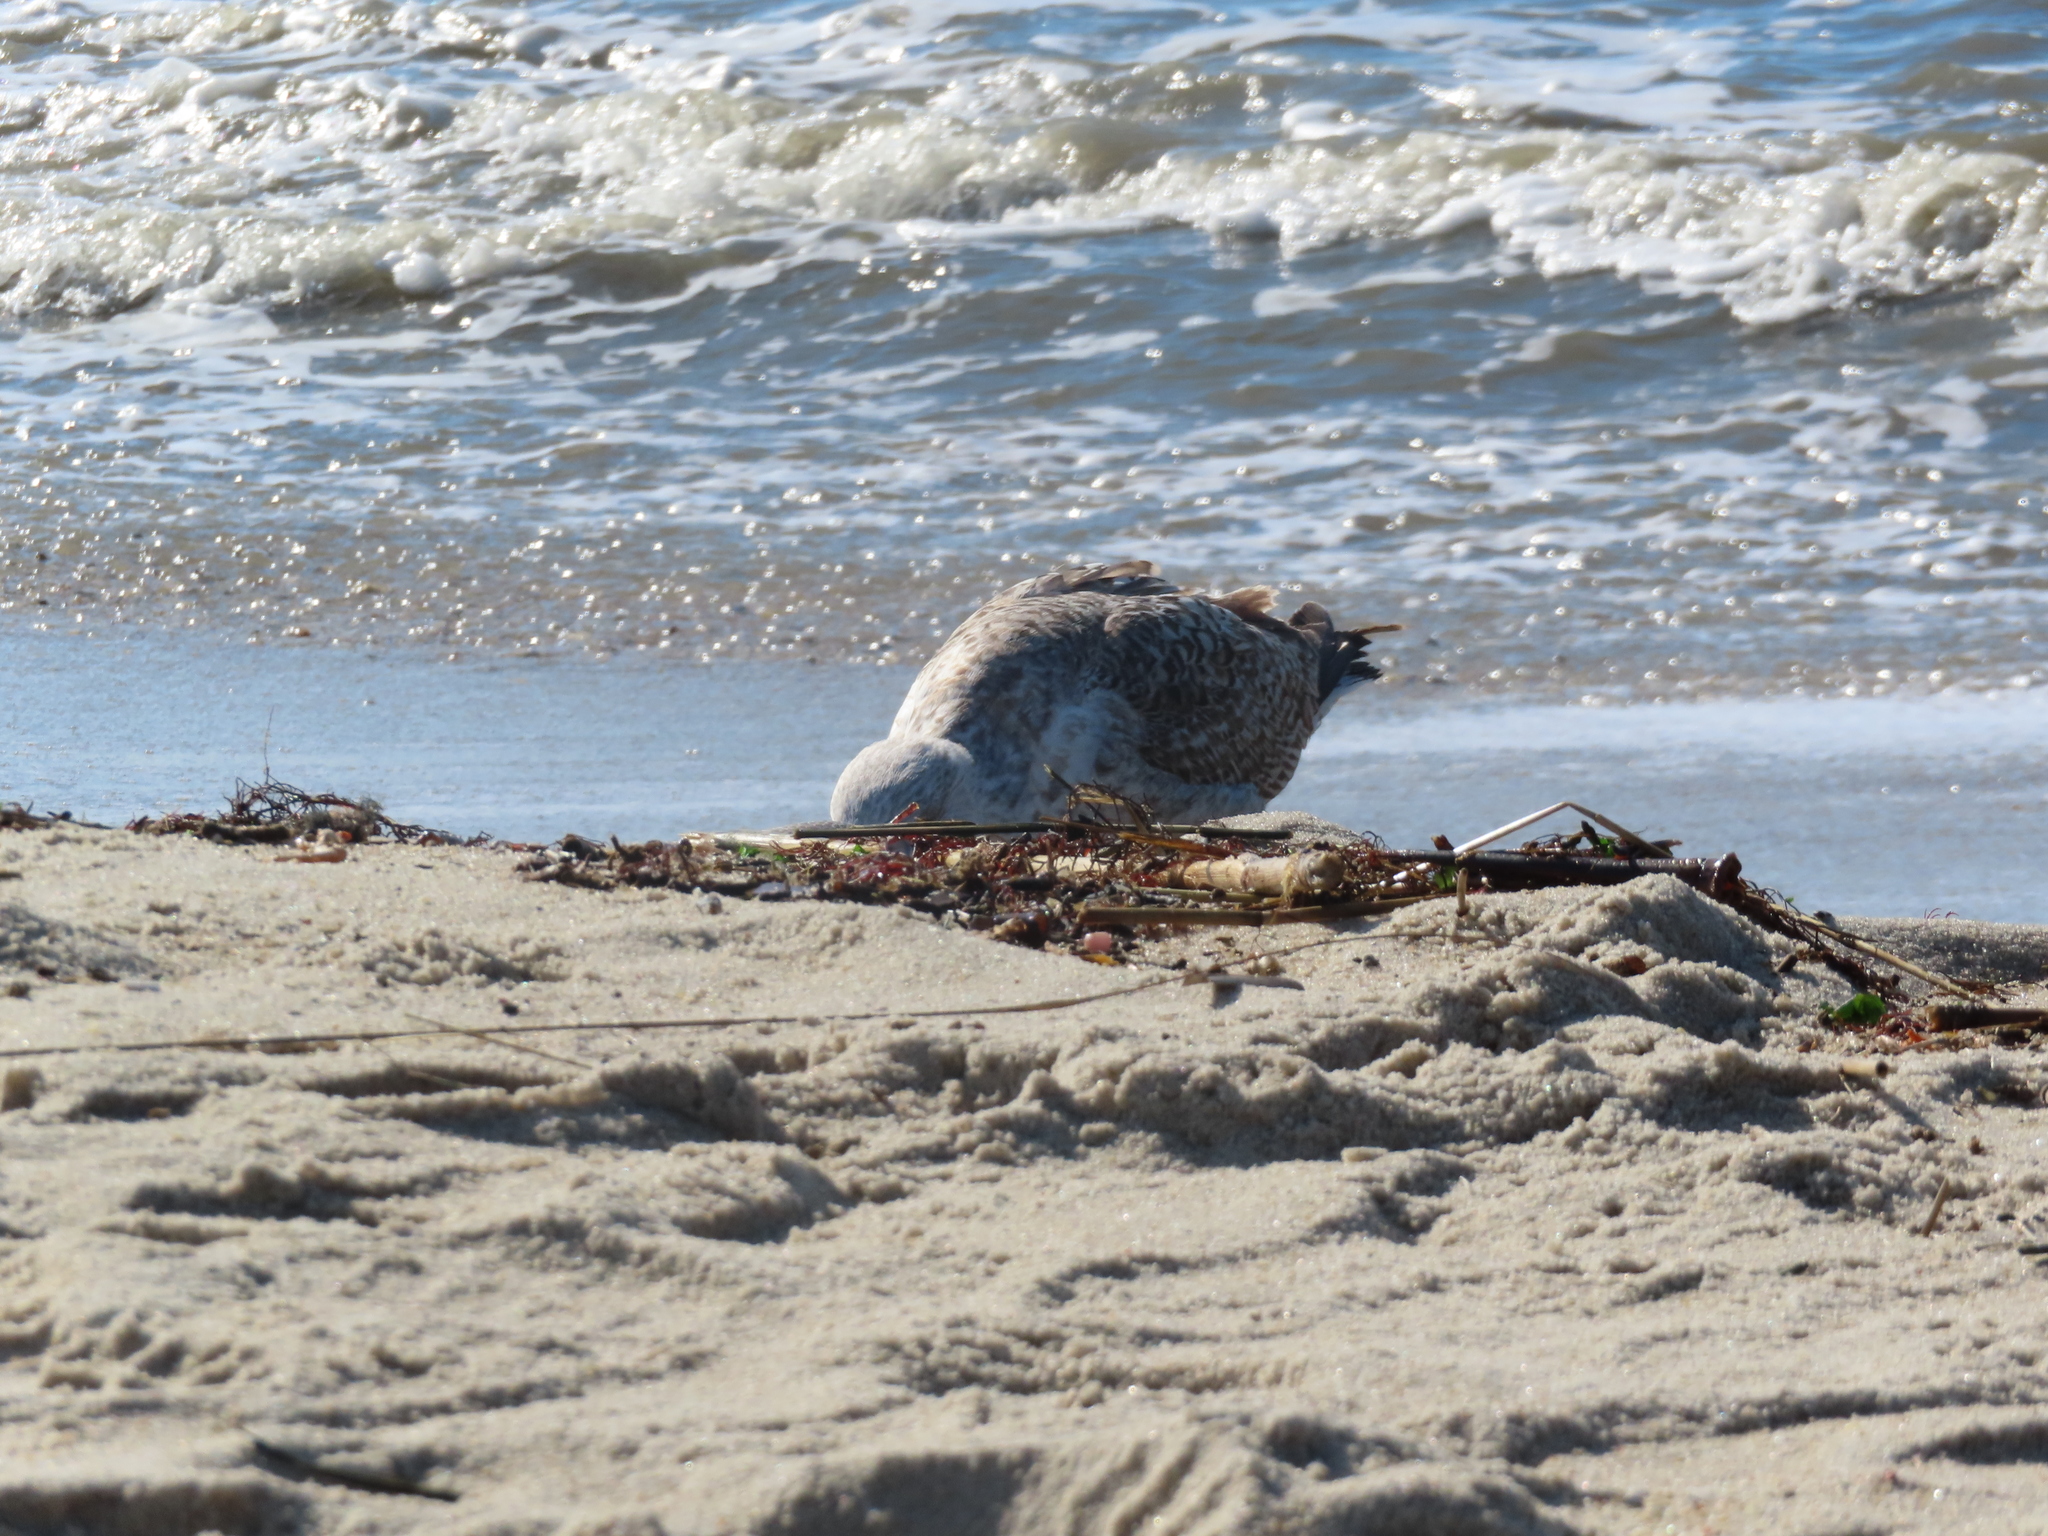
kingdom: Animalia
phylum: Chordata
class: Aves
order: Charadriiformes
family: Laridae
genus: Larus
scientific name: Larus marinus
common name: Great black-backed gull
